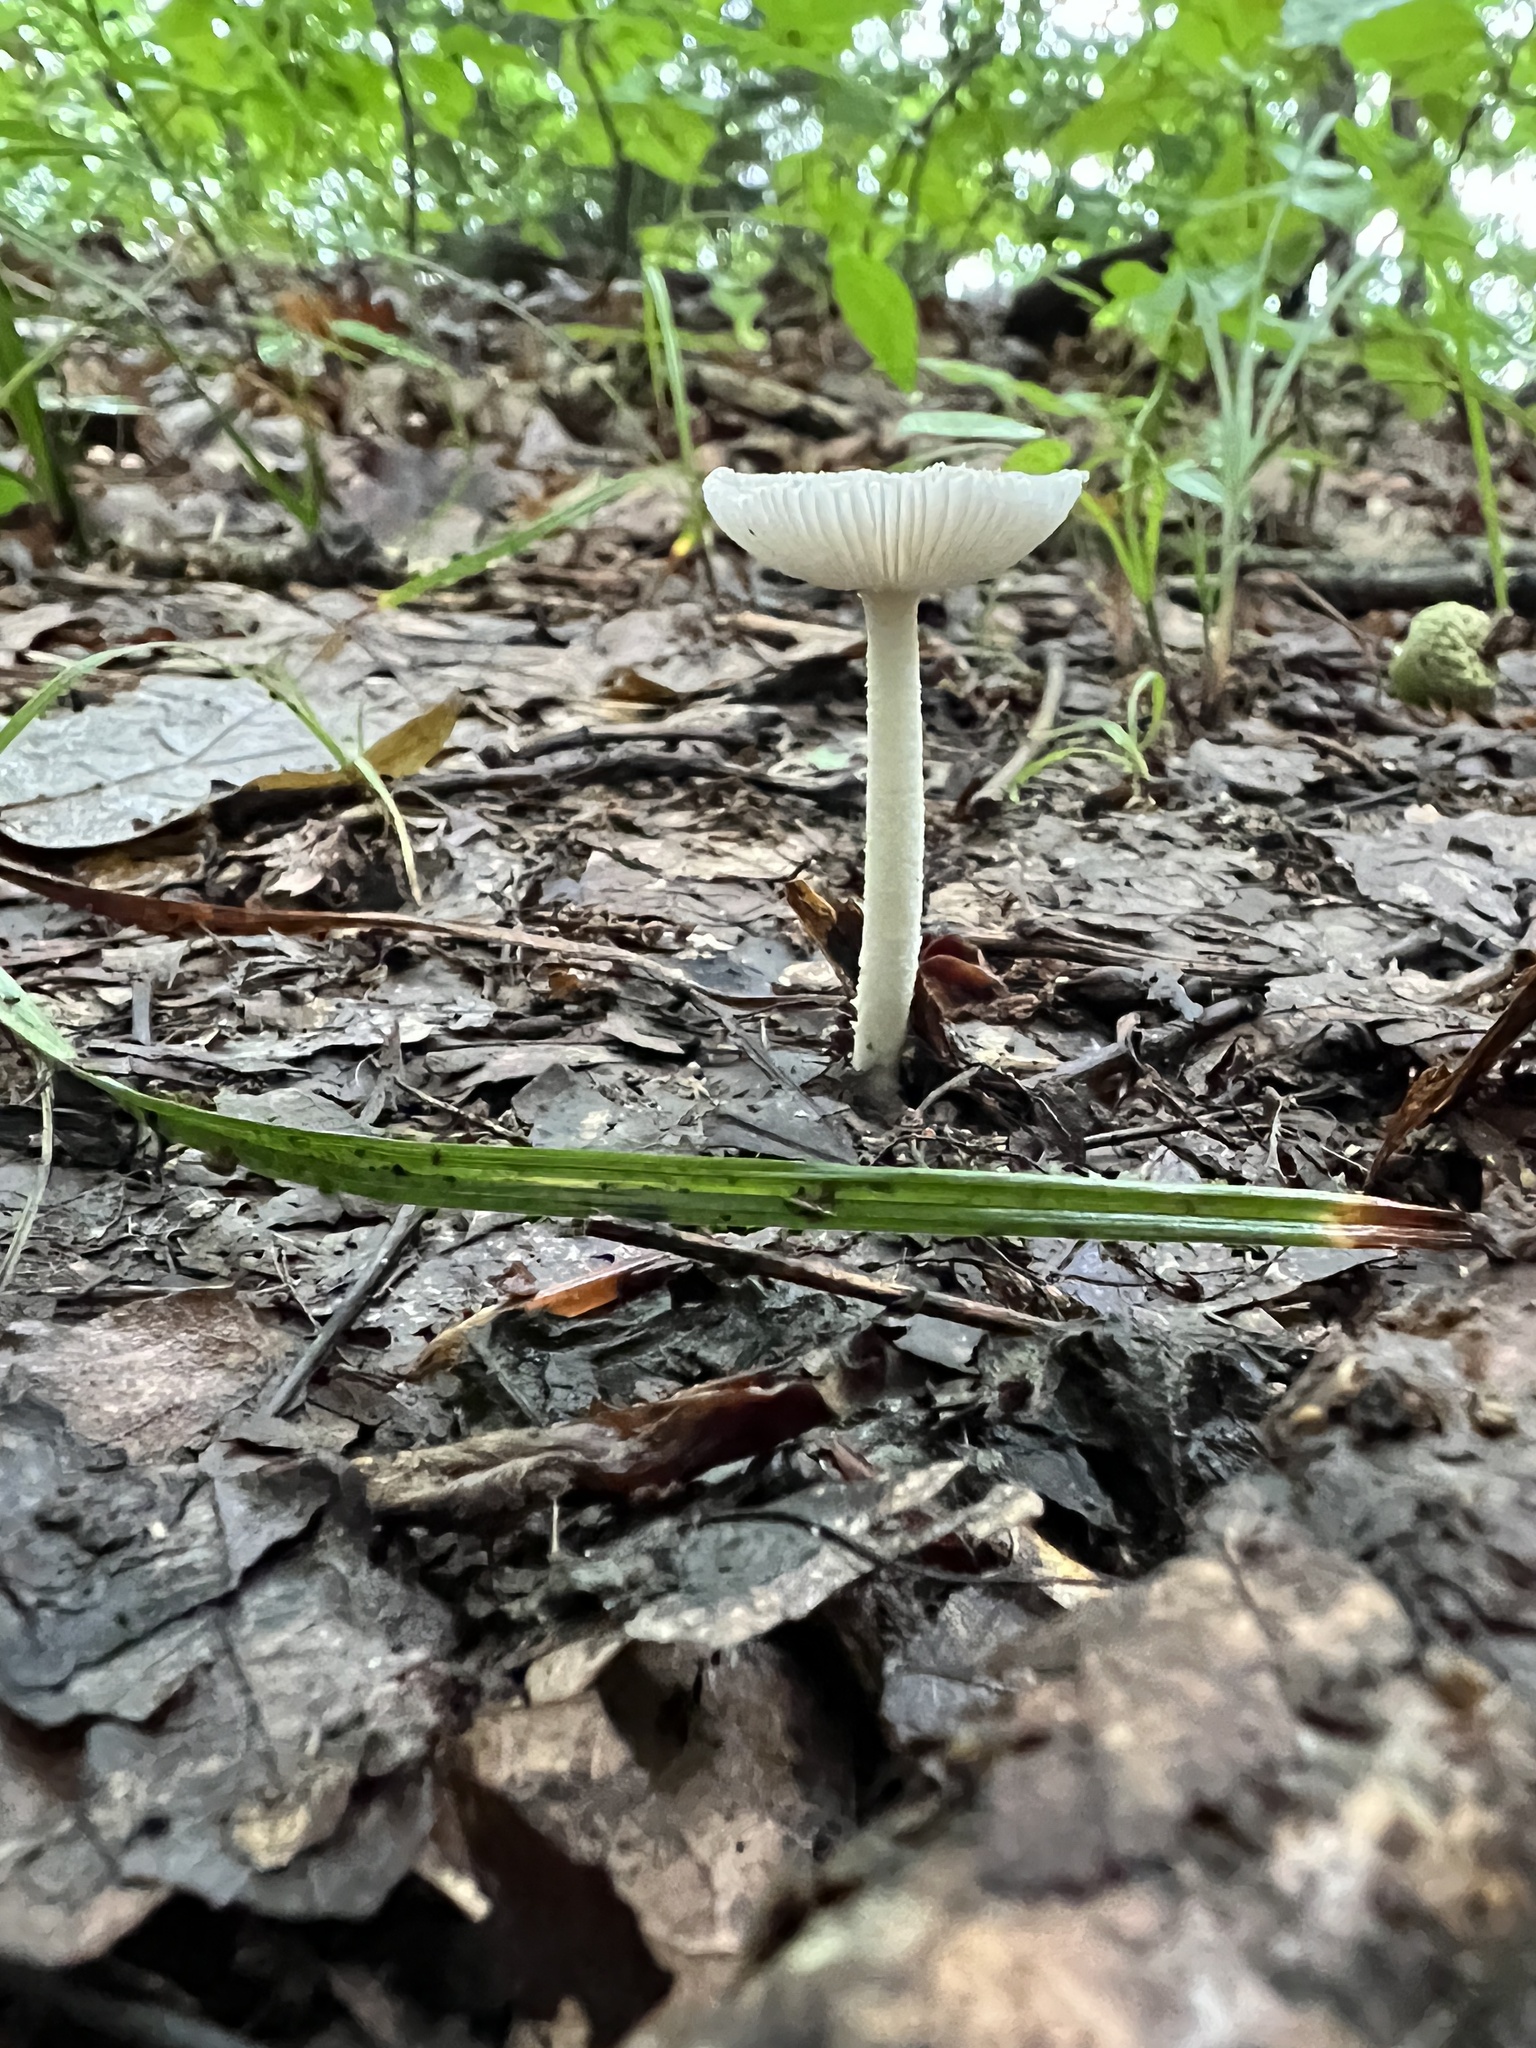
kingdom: Fungi
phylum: Basidiomycota
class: Agaricomycetes
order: Agaricales
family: Amanitaceae
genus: Amanita
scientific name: Amanita farinosa
